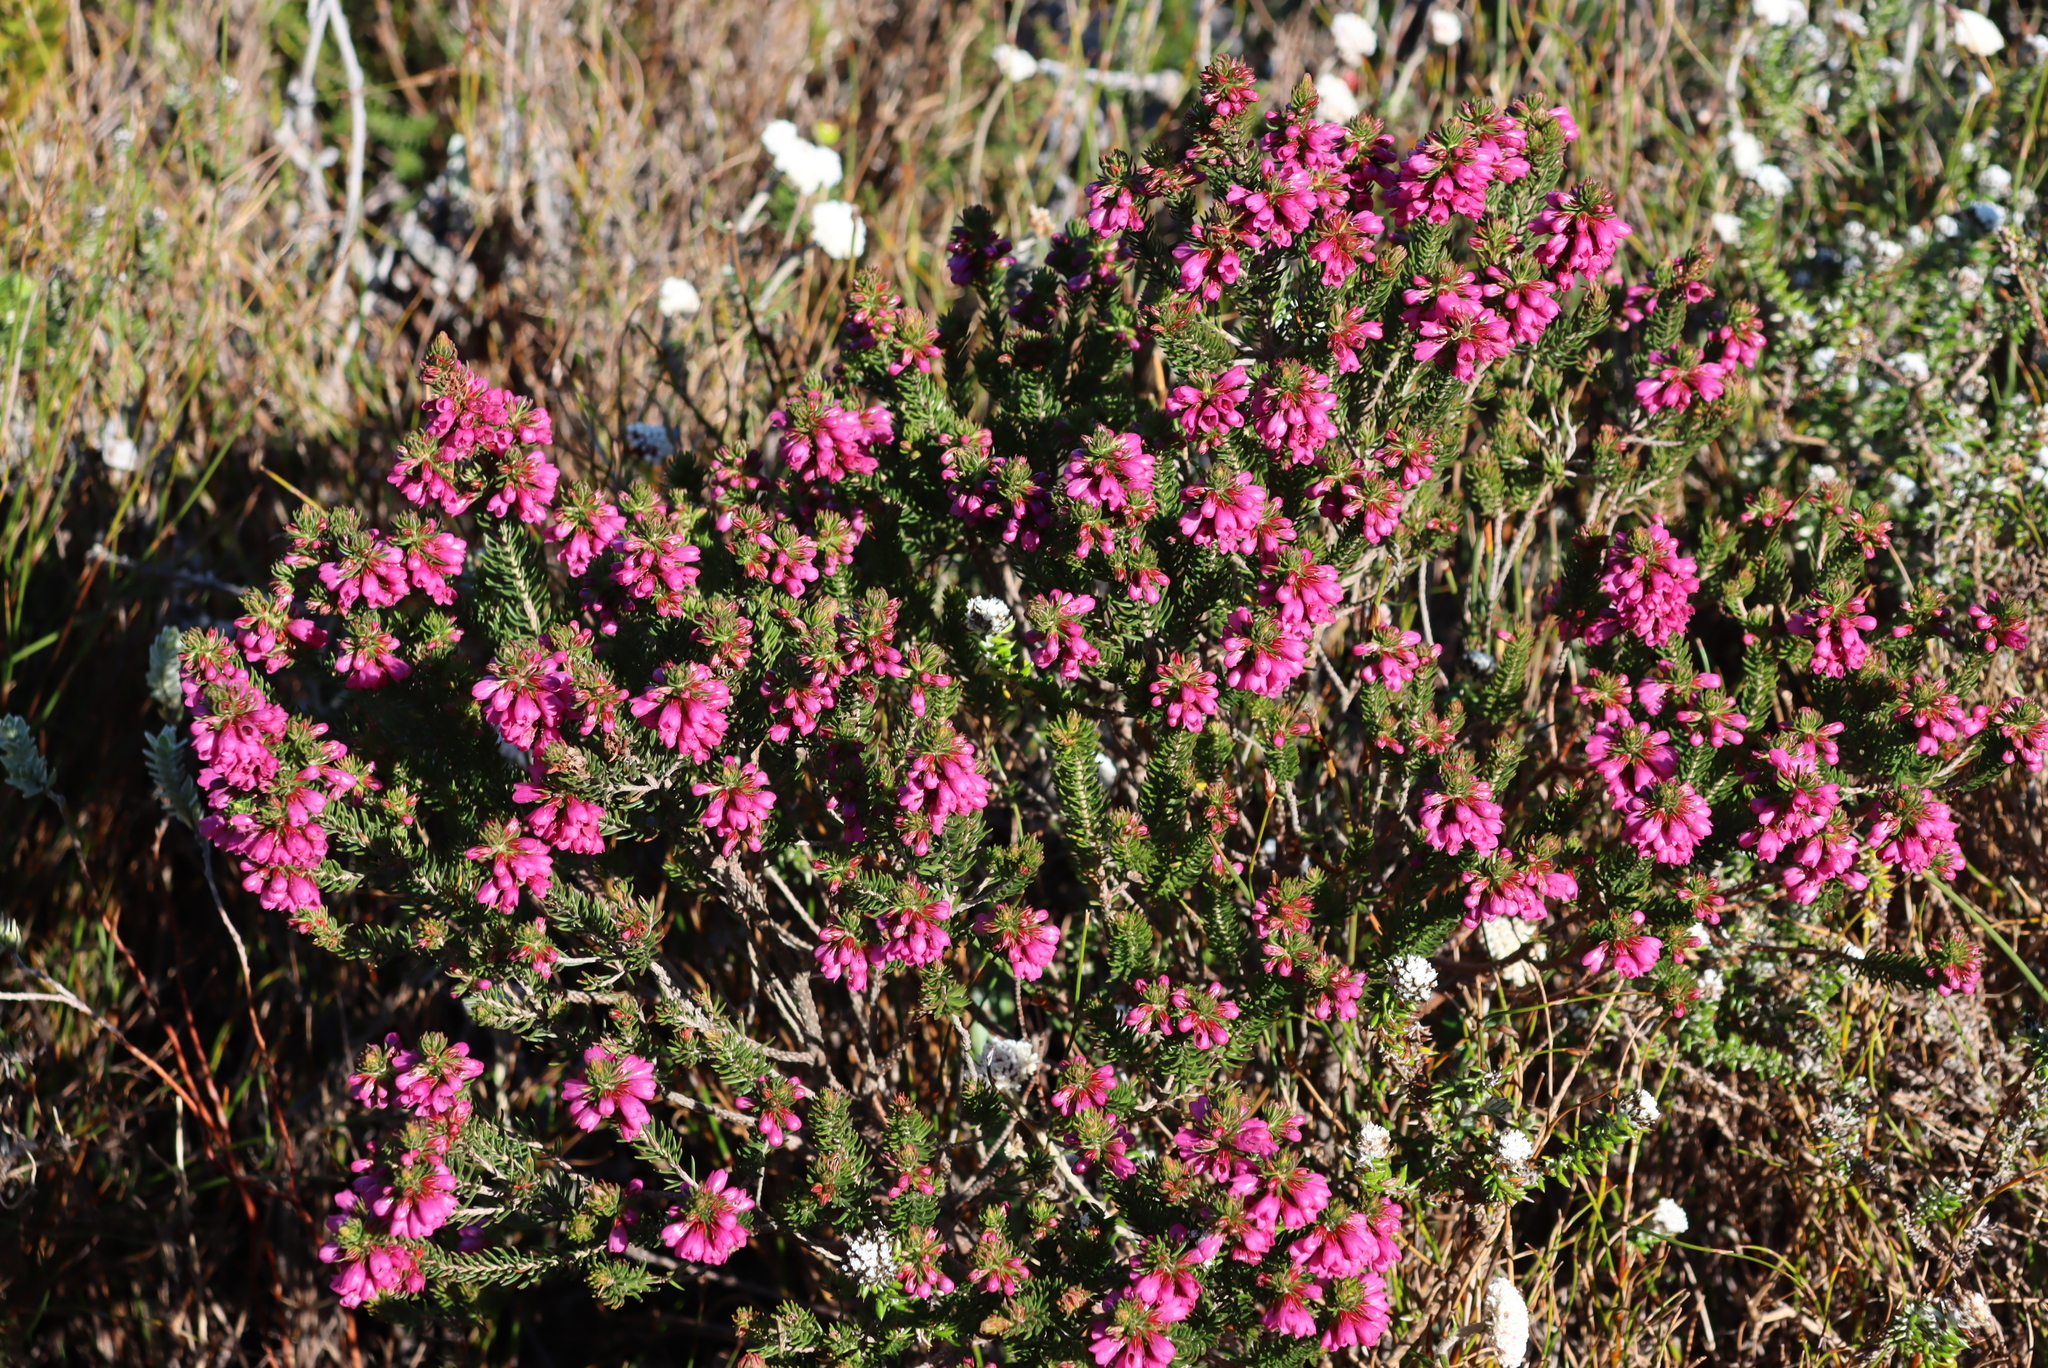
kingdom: Plantae
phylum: Tracheophyta
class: Magnoliopsida
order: Ericales
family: Ericaceae
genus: Erica
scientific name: Erica abietina
